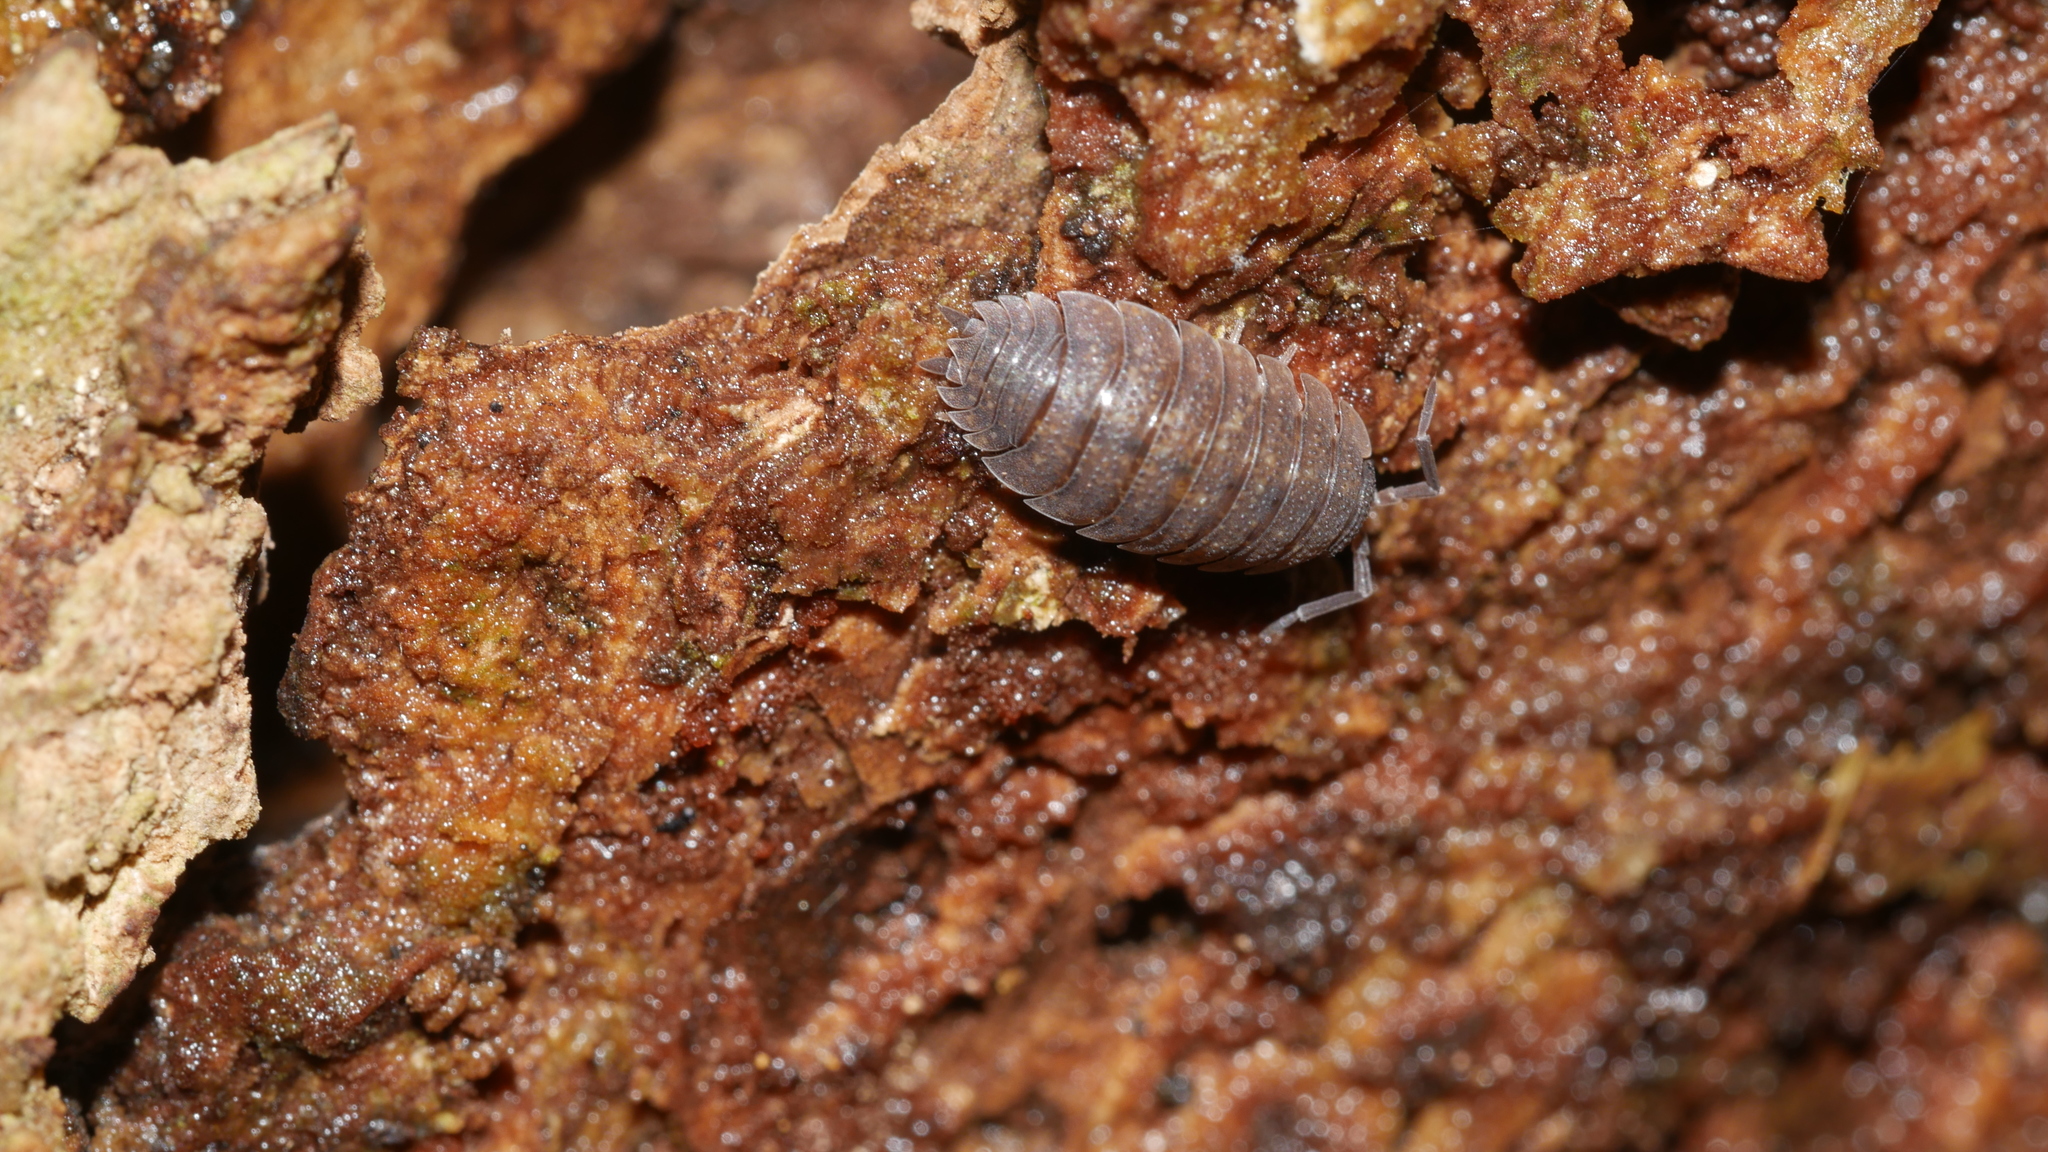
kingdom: Animalia
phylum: Arthropoda
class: Malacostraca
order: Isopoda
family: Porcellionidae
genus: Porcellio
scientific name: Porcellio scaber
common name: Common rough woodlouse
